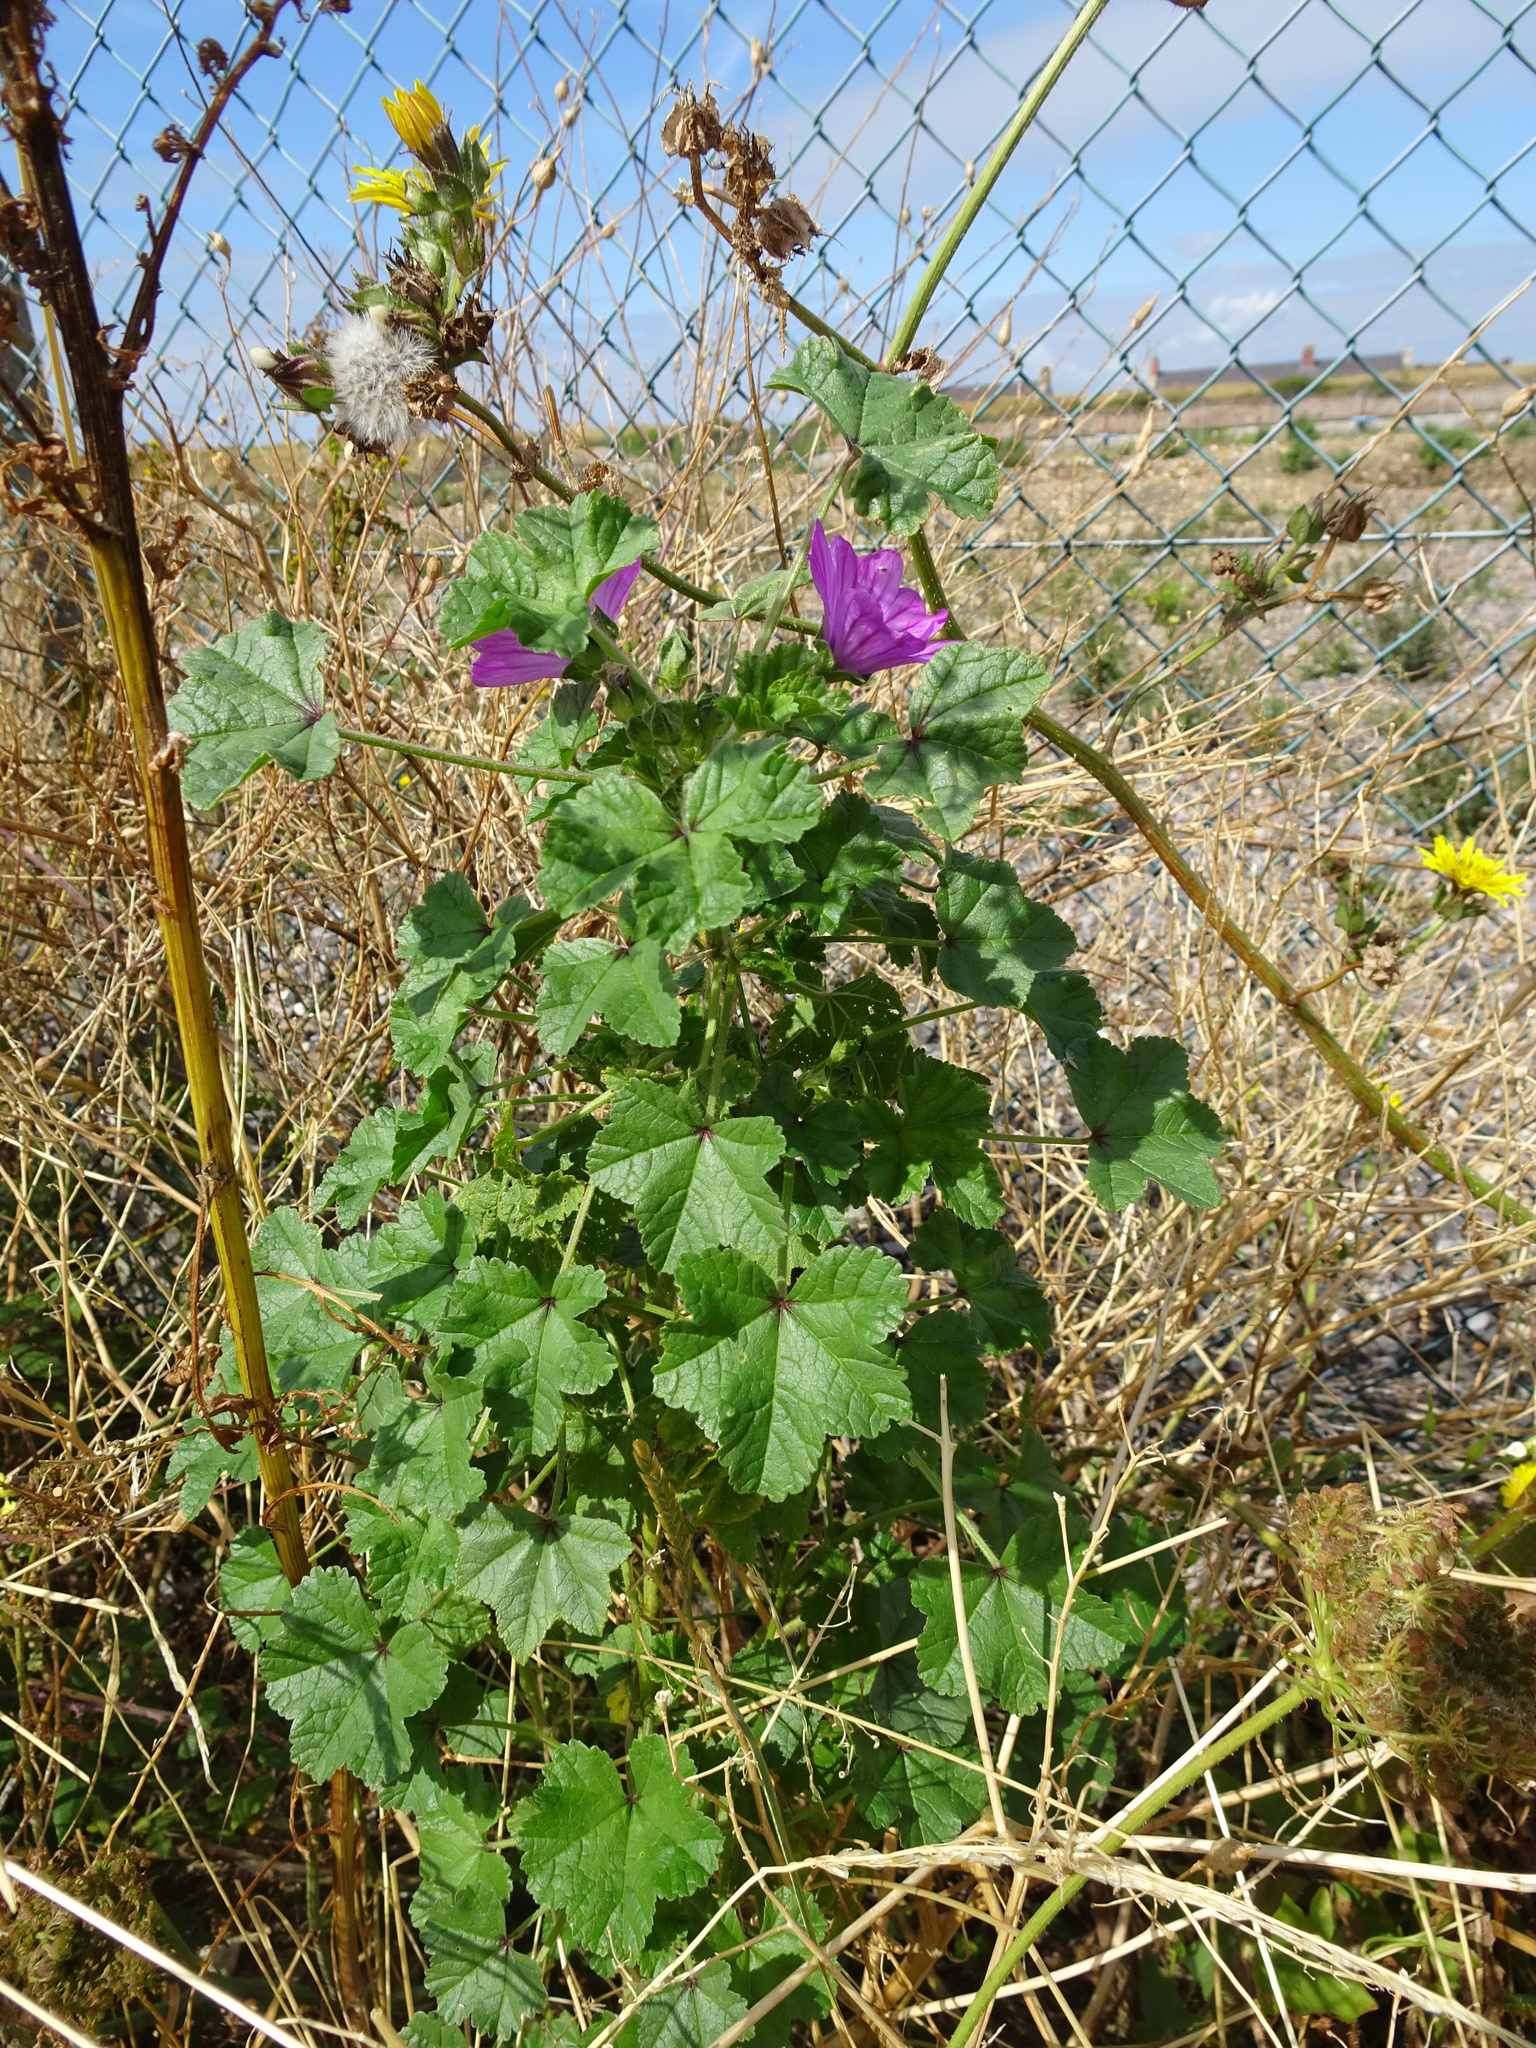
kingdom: Plantae
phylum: Tracheophyta
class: Magnoliopsida
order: Malvales
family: Malvaceae
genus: Malva
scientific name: Malva sylvestris
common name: Common mallow
